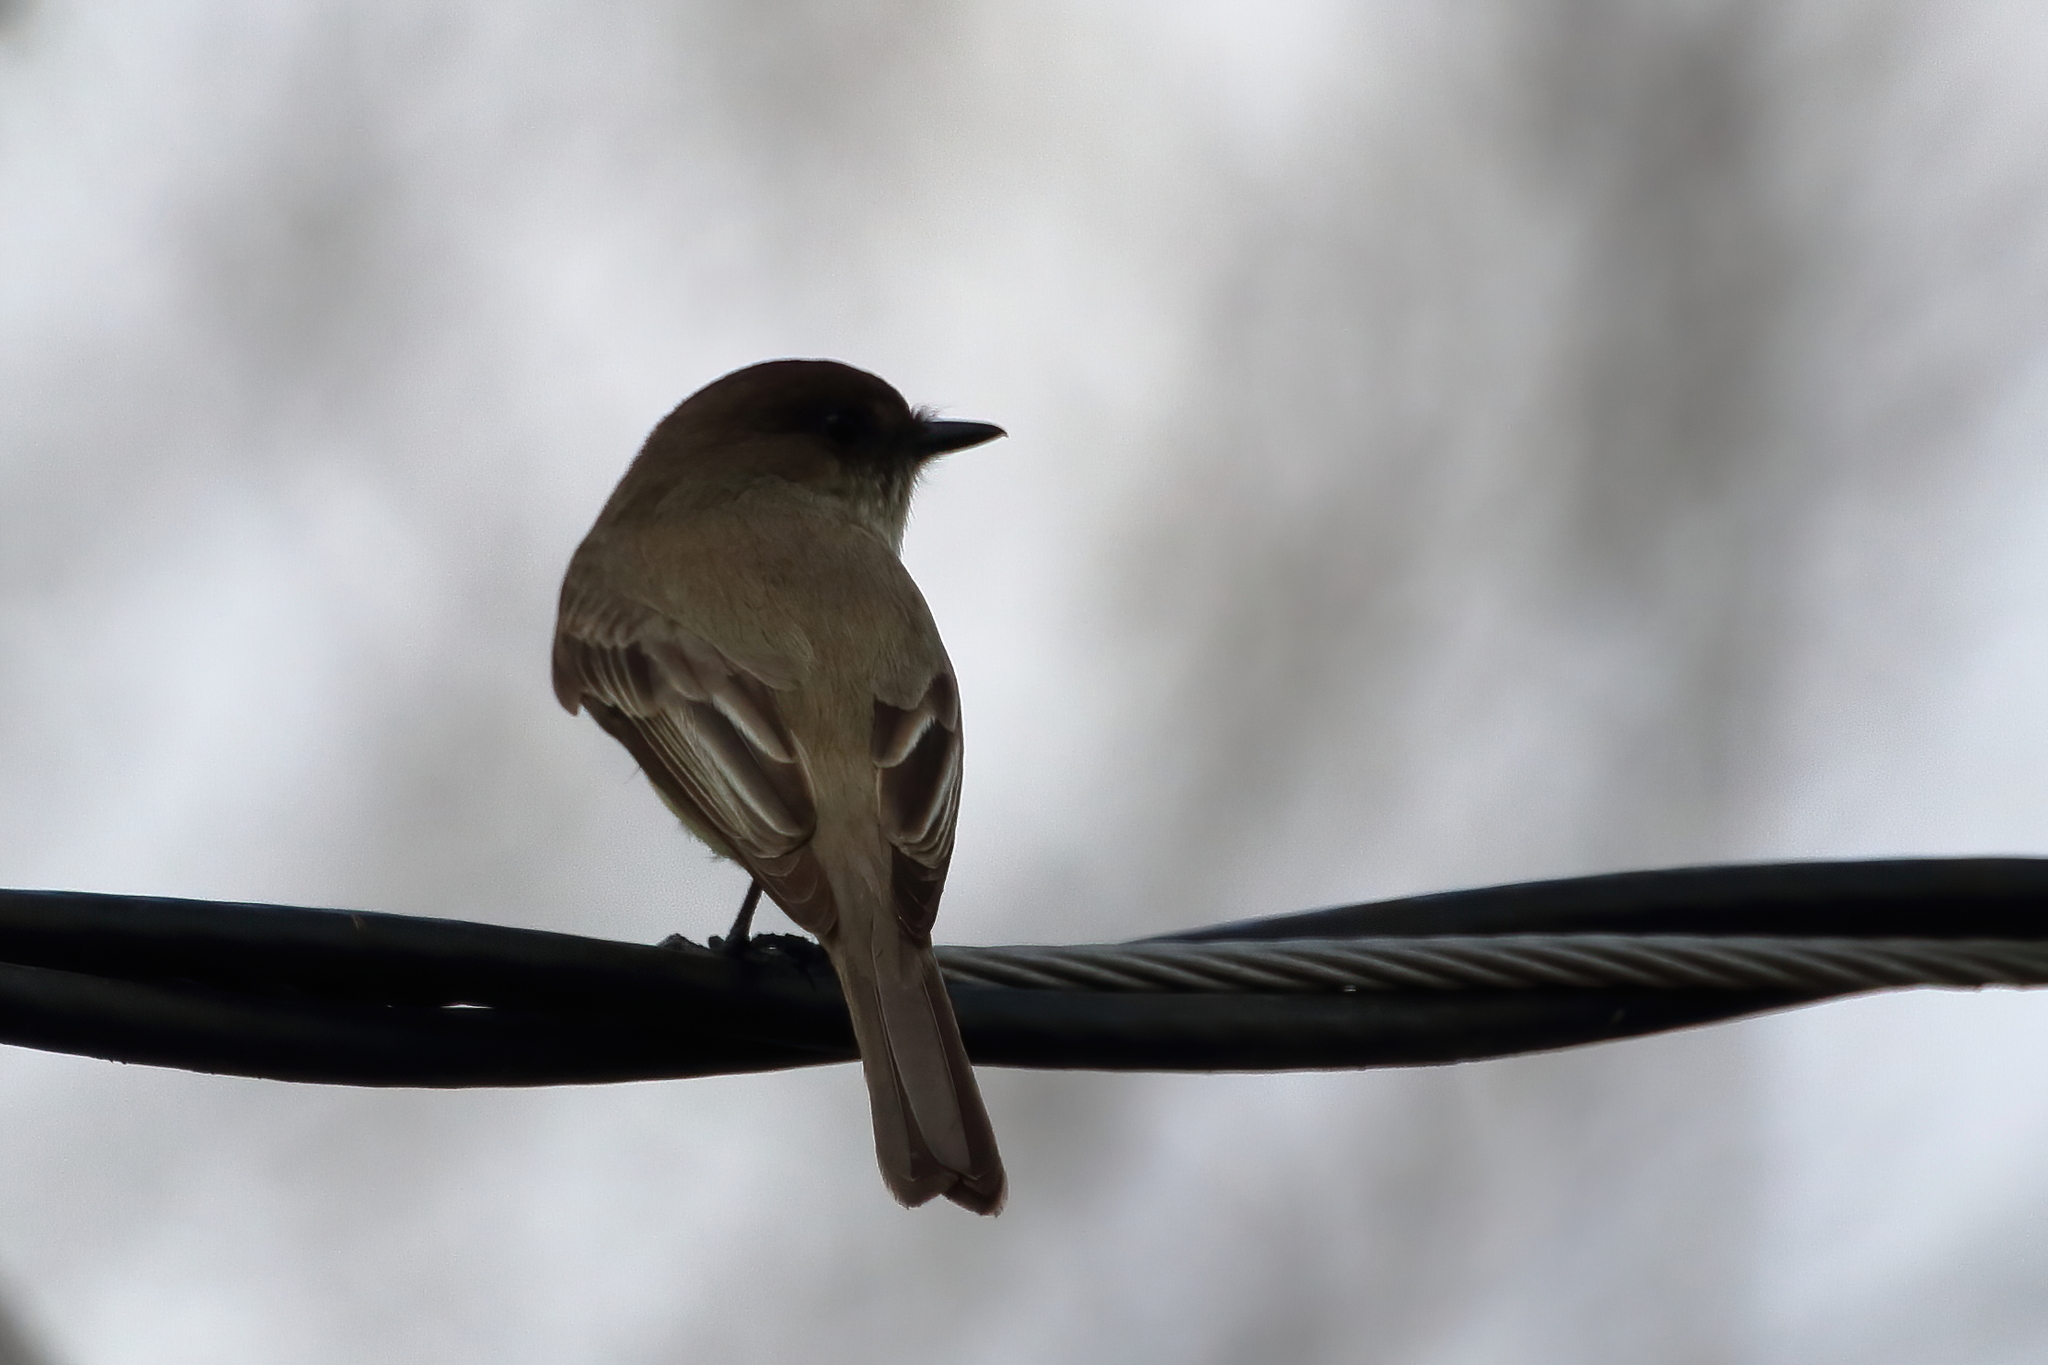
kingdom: Animalia
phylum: Chordata
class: Aves
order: Passeriformes
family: Tyrannidae
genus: Sayornis
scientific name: Sayornis phoebe
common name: Eastern phoebe
